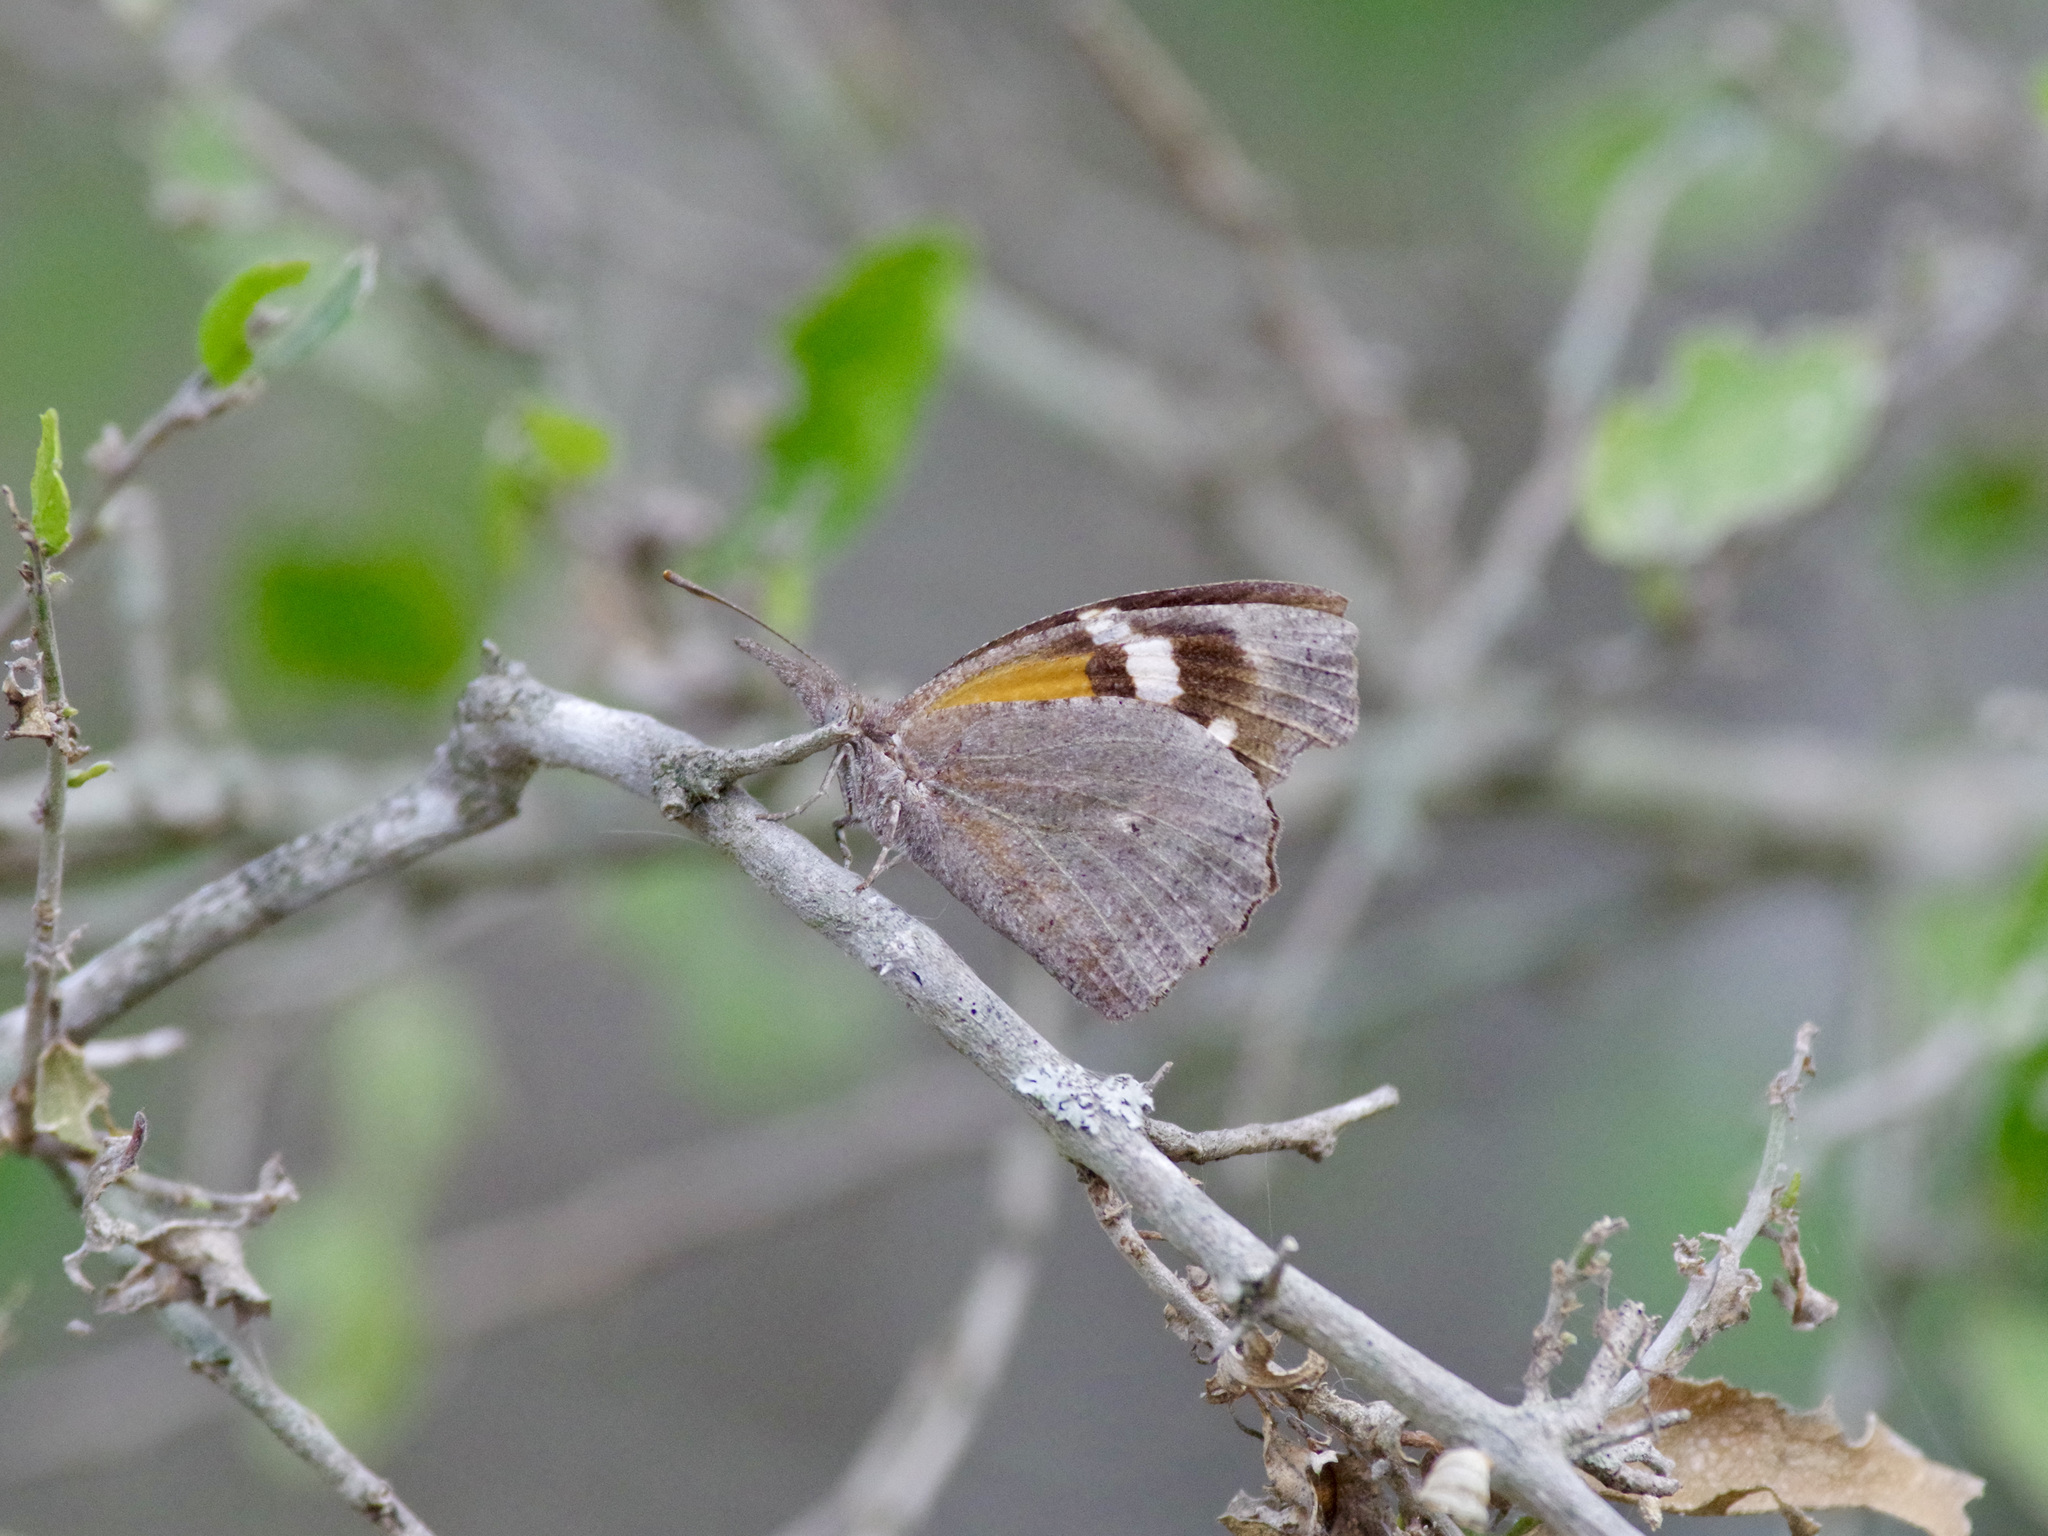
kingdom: Animalia
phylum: Arthropoda
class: Insecta
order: Lepidoptera
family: Nymphalidae
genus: Libytheana
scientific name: Libytheana carinenta
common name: American snout
